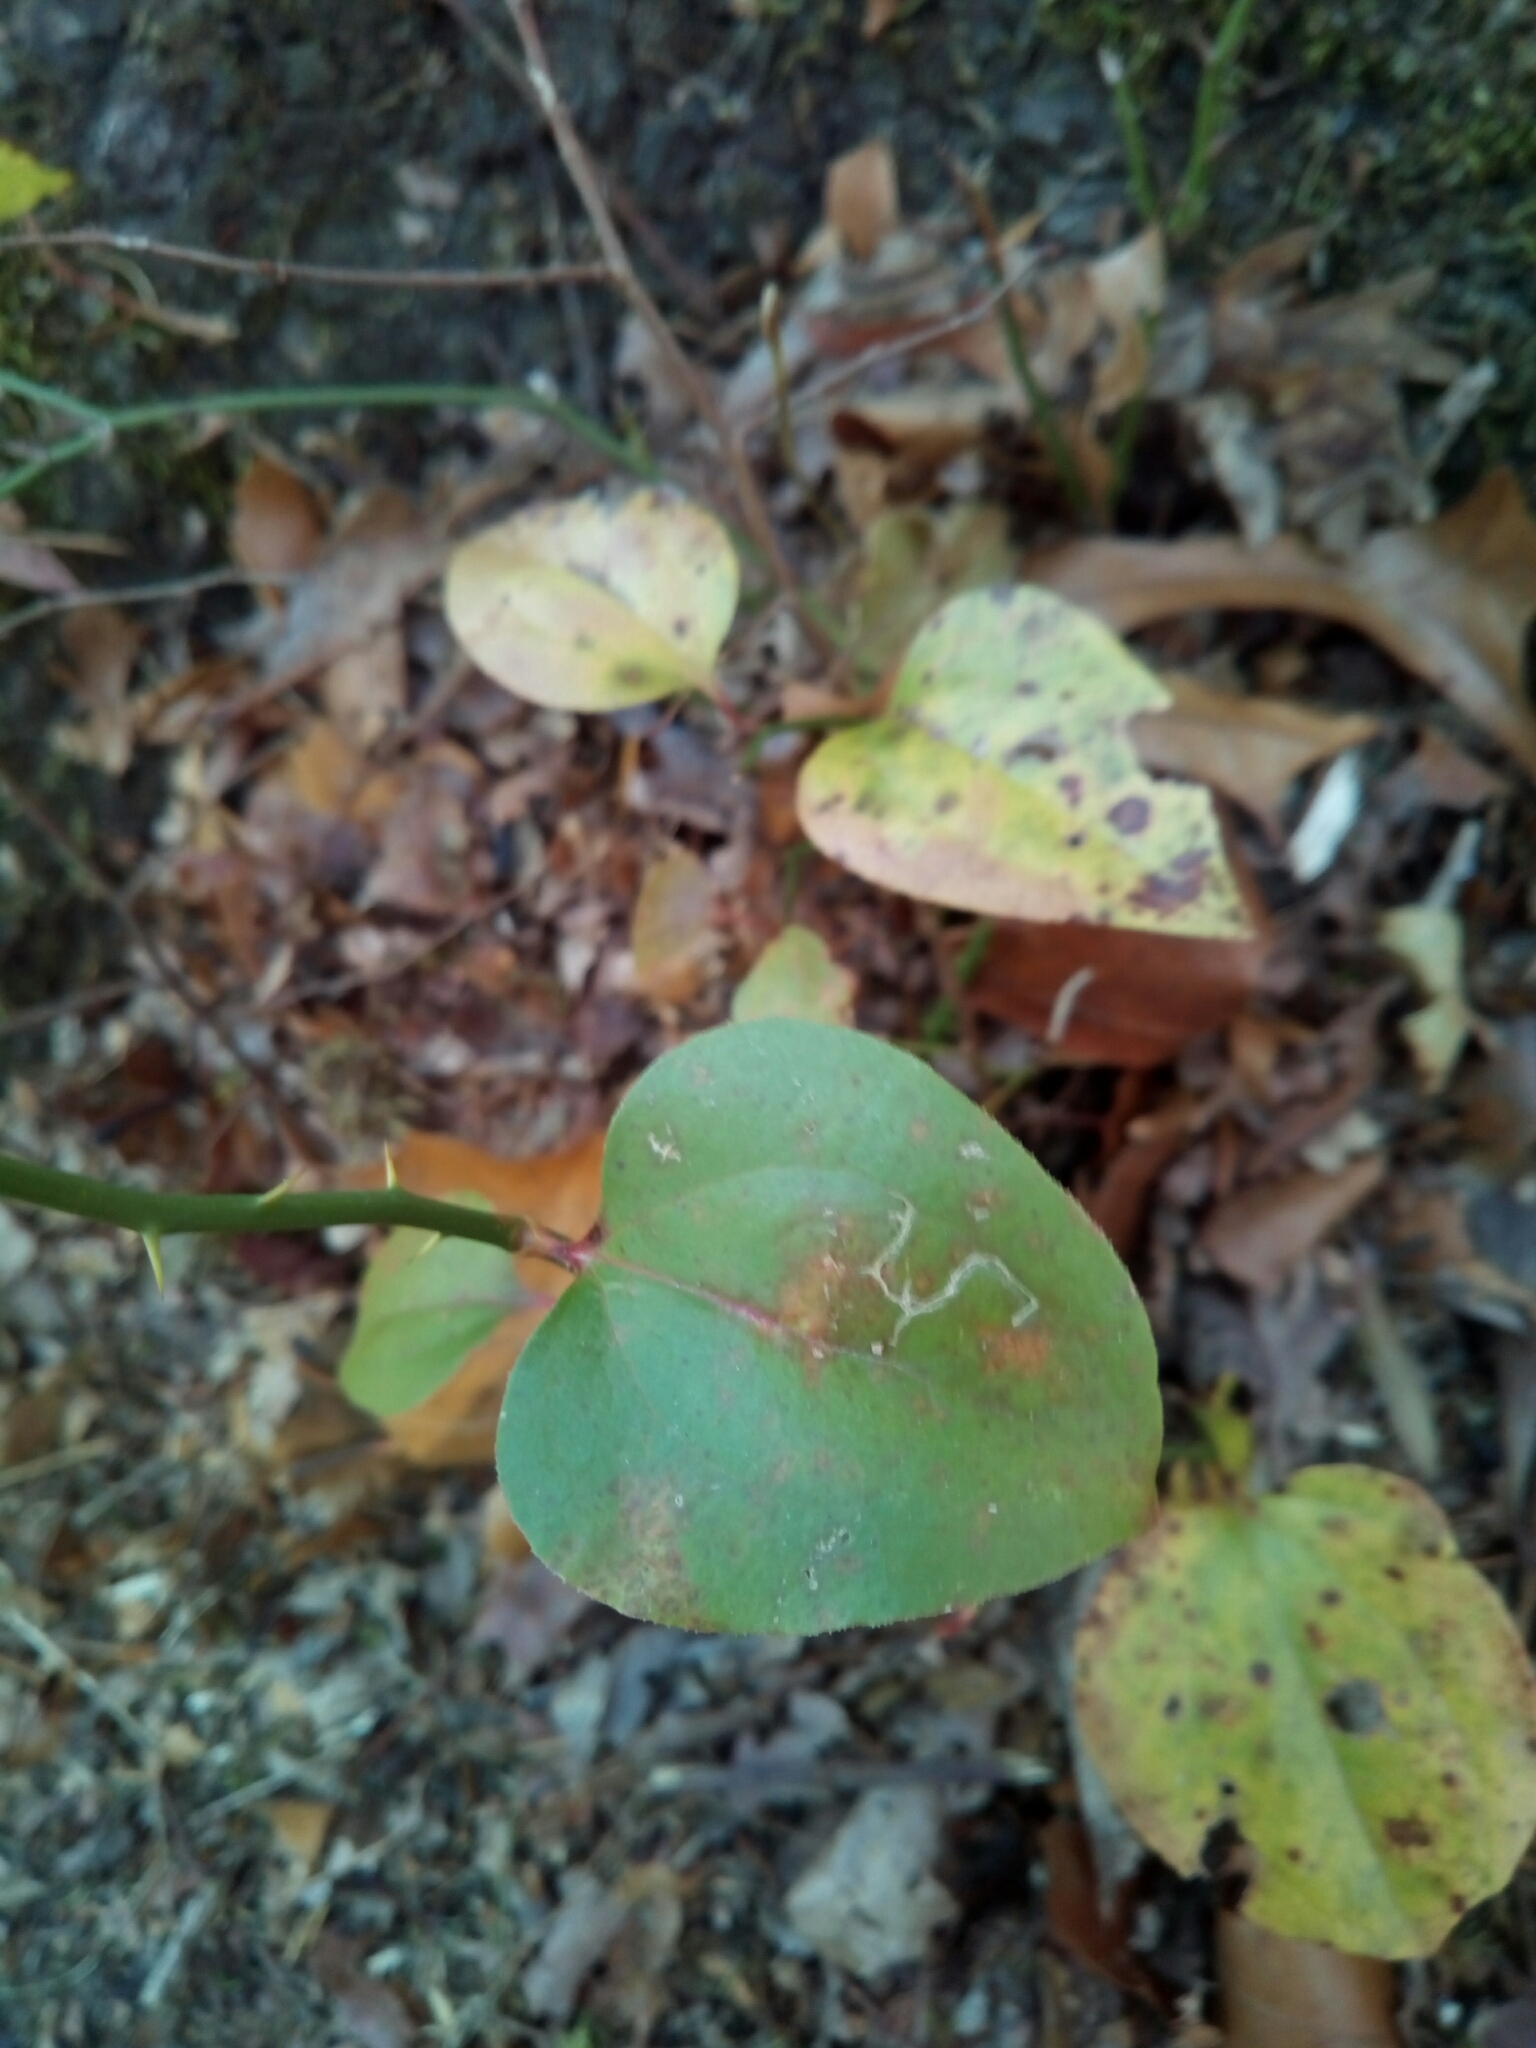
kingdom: Plantae
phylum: Tracheophyta
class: Liliopsida
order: Liliales
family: Smilacaceae
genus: Smilax
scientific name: Smilax rotundifolia
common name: Bullbriar
